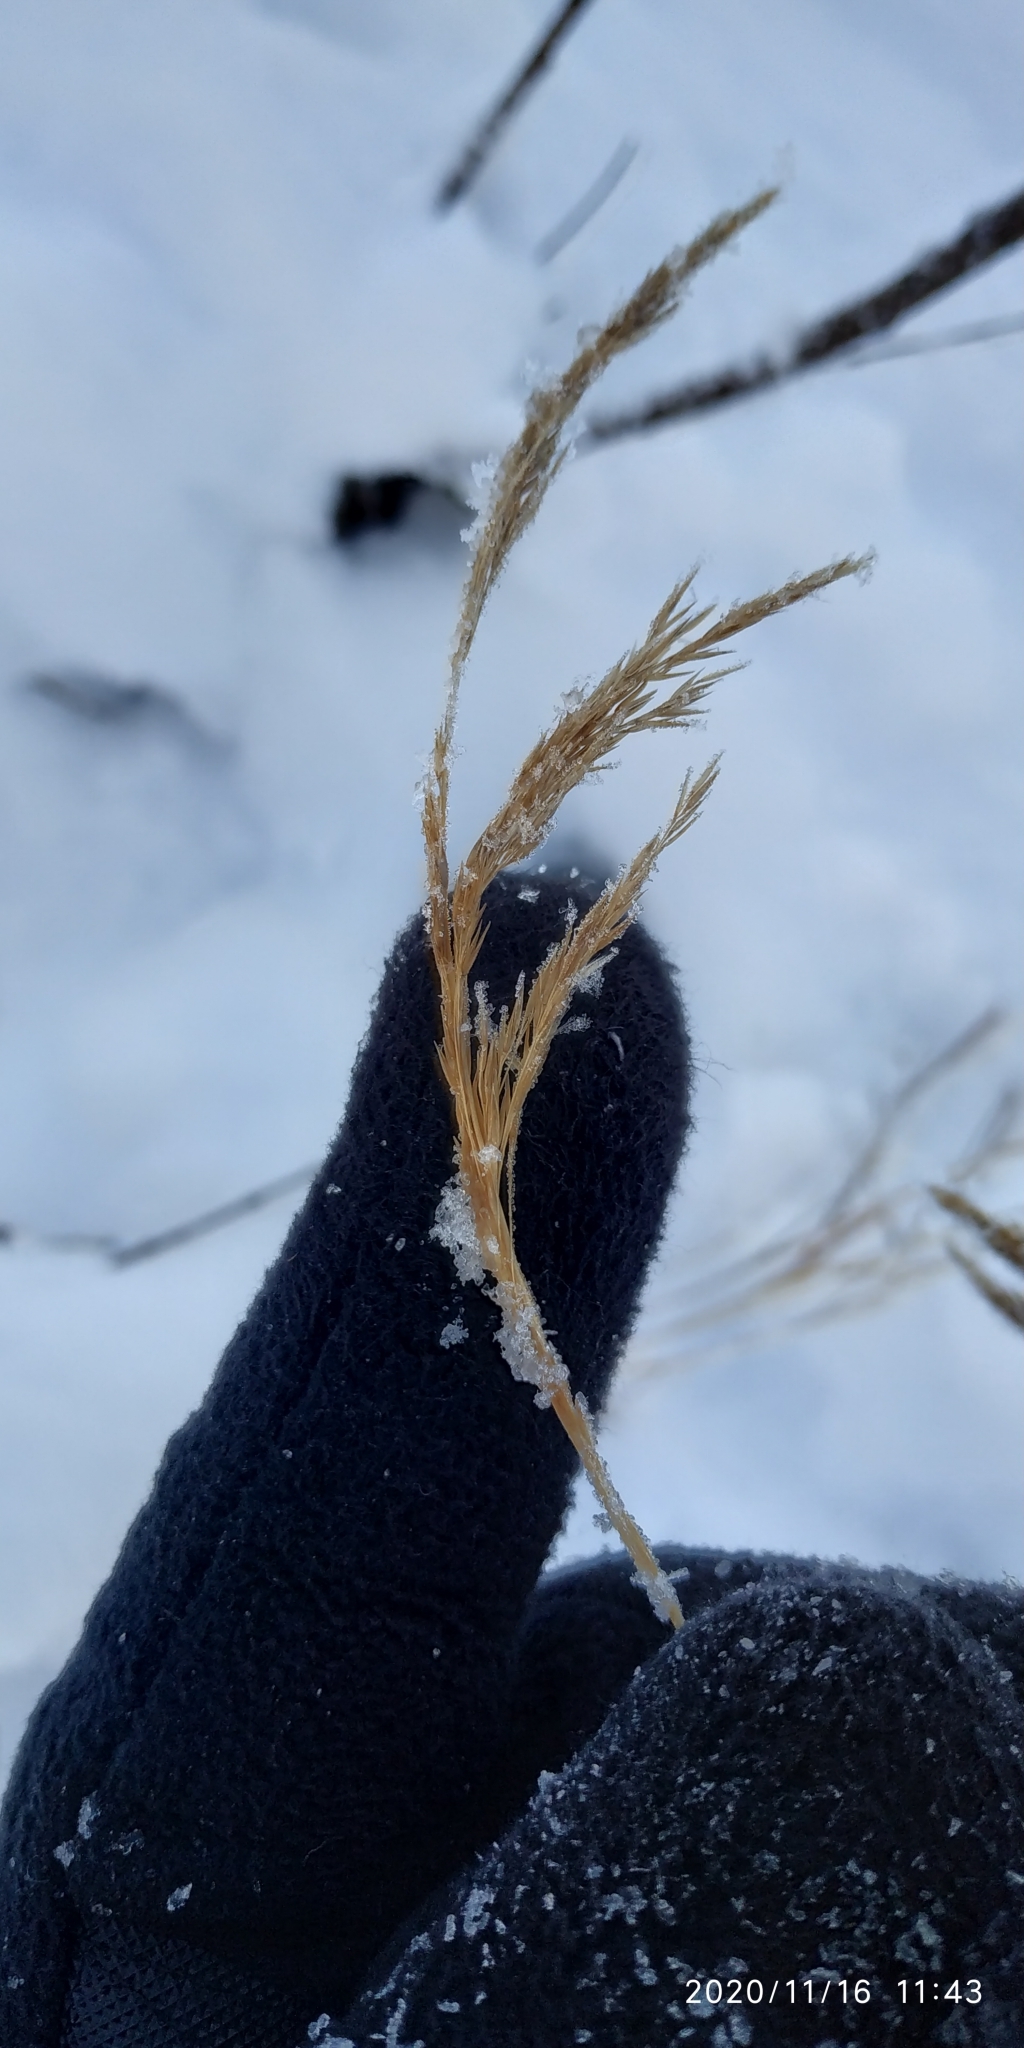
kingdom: Plantae
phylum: Tracheophyta
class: Liliopsida
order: Poales
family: Poaceae
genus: Calamagrostis
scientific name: Calamagrostis purpurea
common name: Scandinavian small-reed
